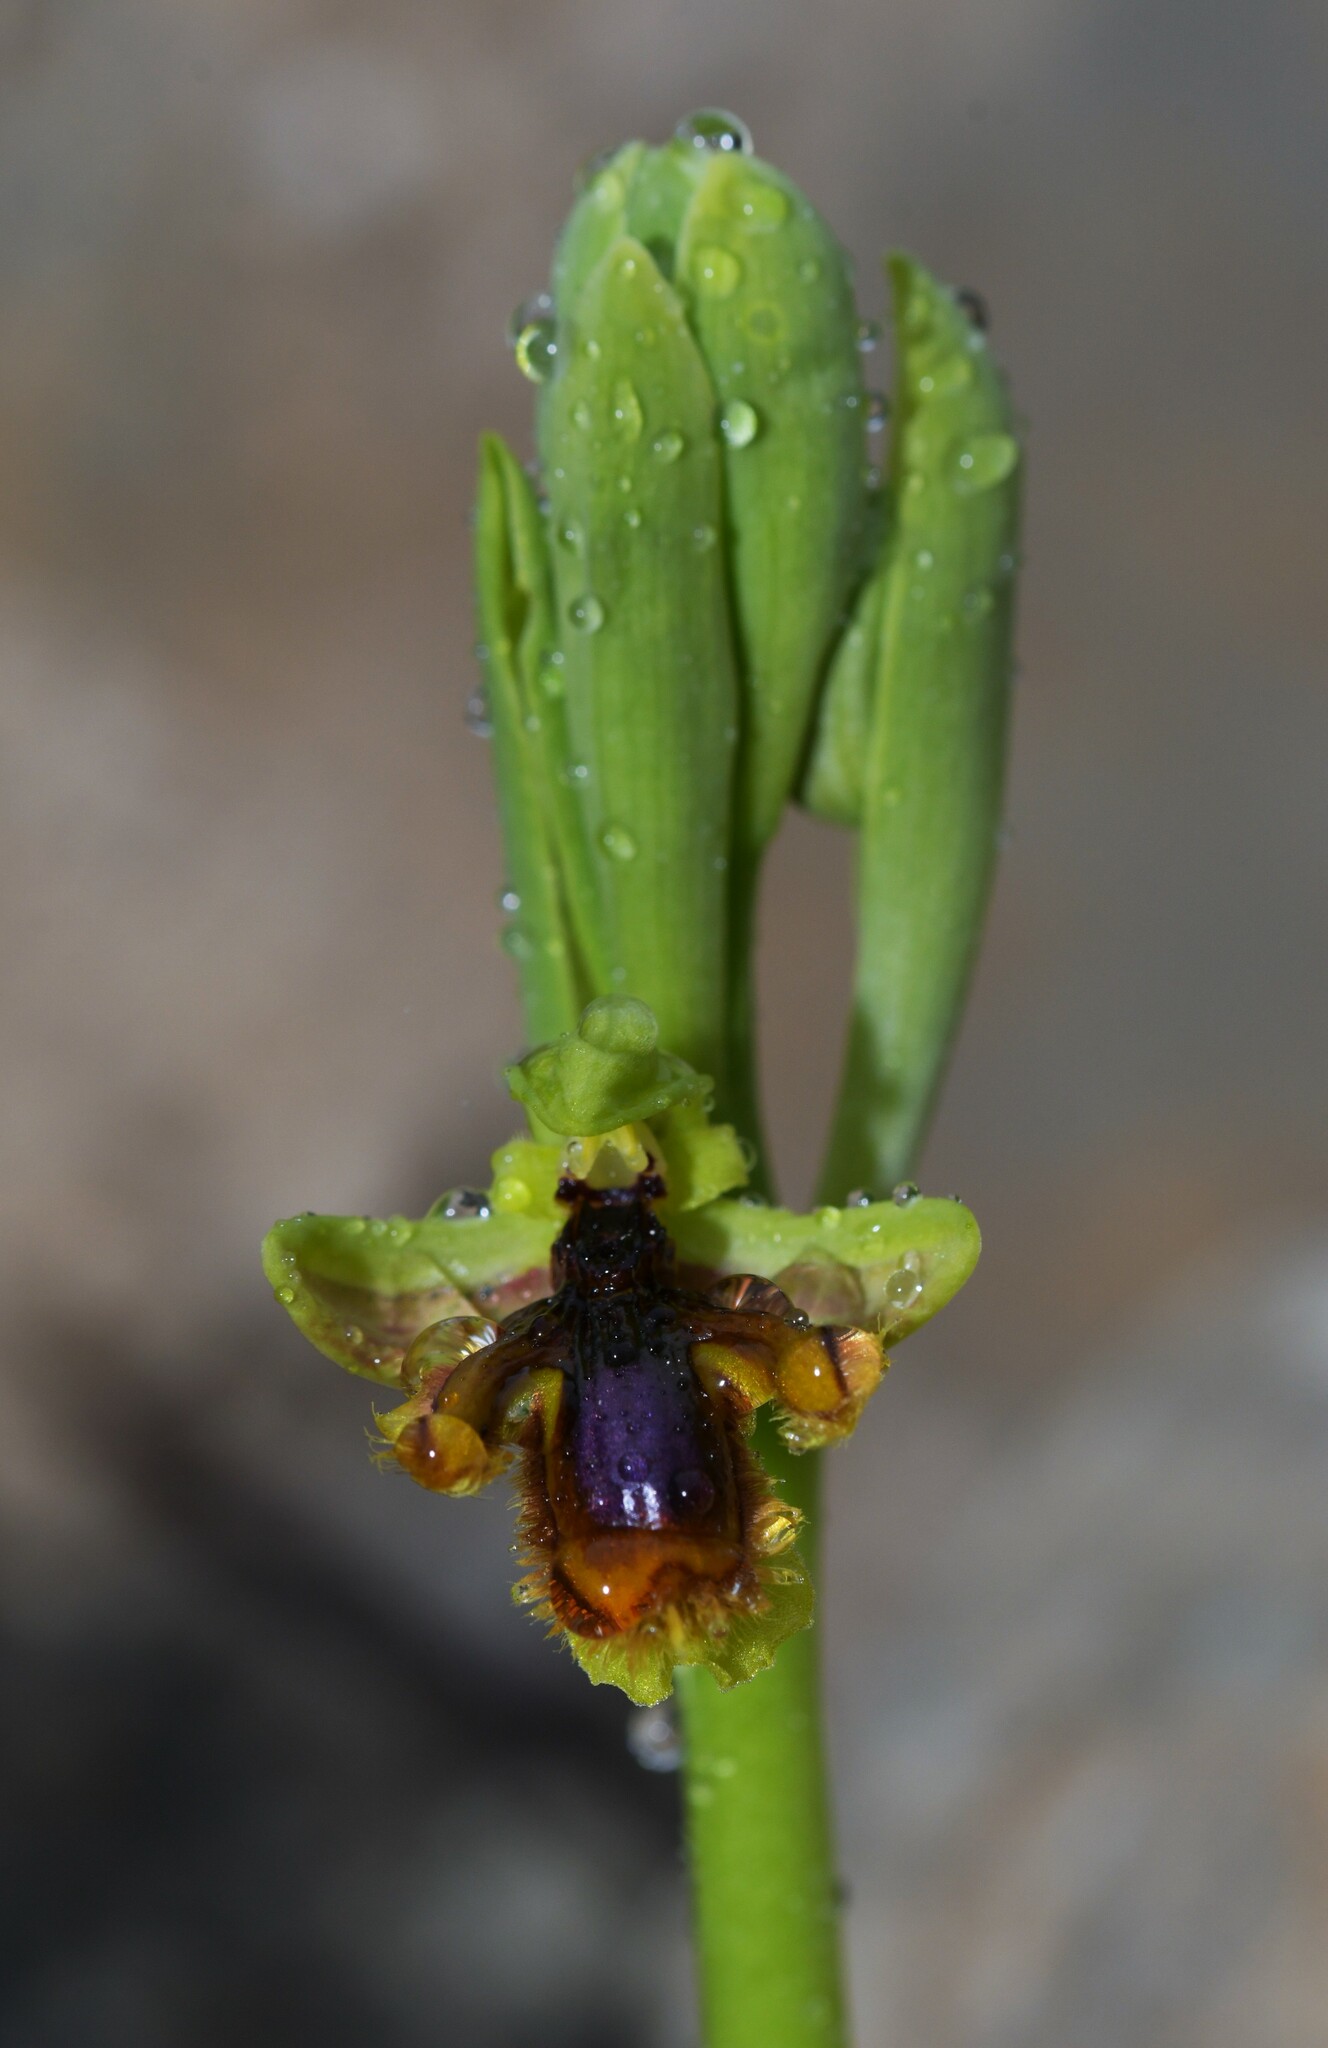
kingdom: Plantae
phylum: Tracheophyta
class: Liliopsida
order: Asparagales
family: Orchidaceae
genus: Ophrys
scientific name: Ophrys speculum
